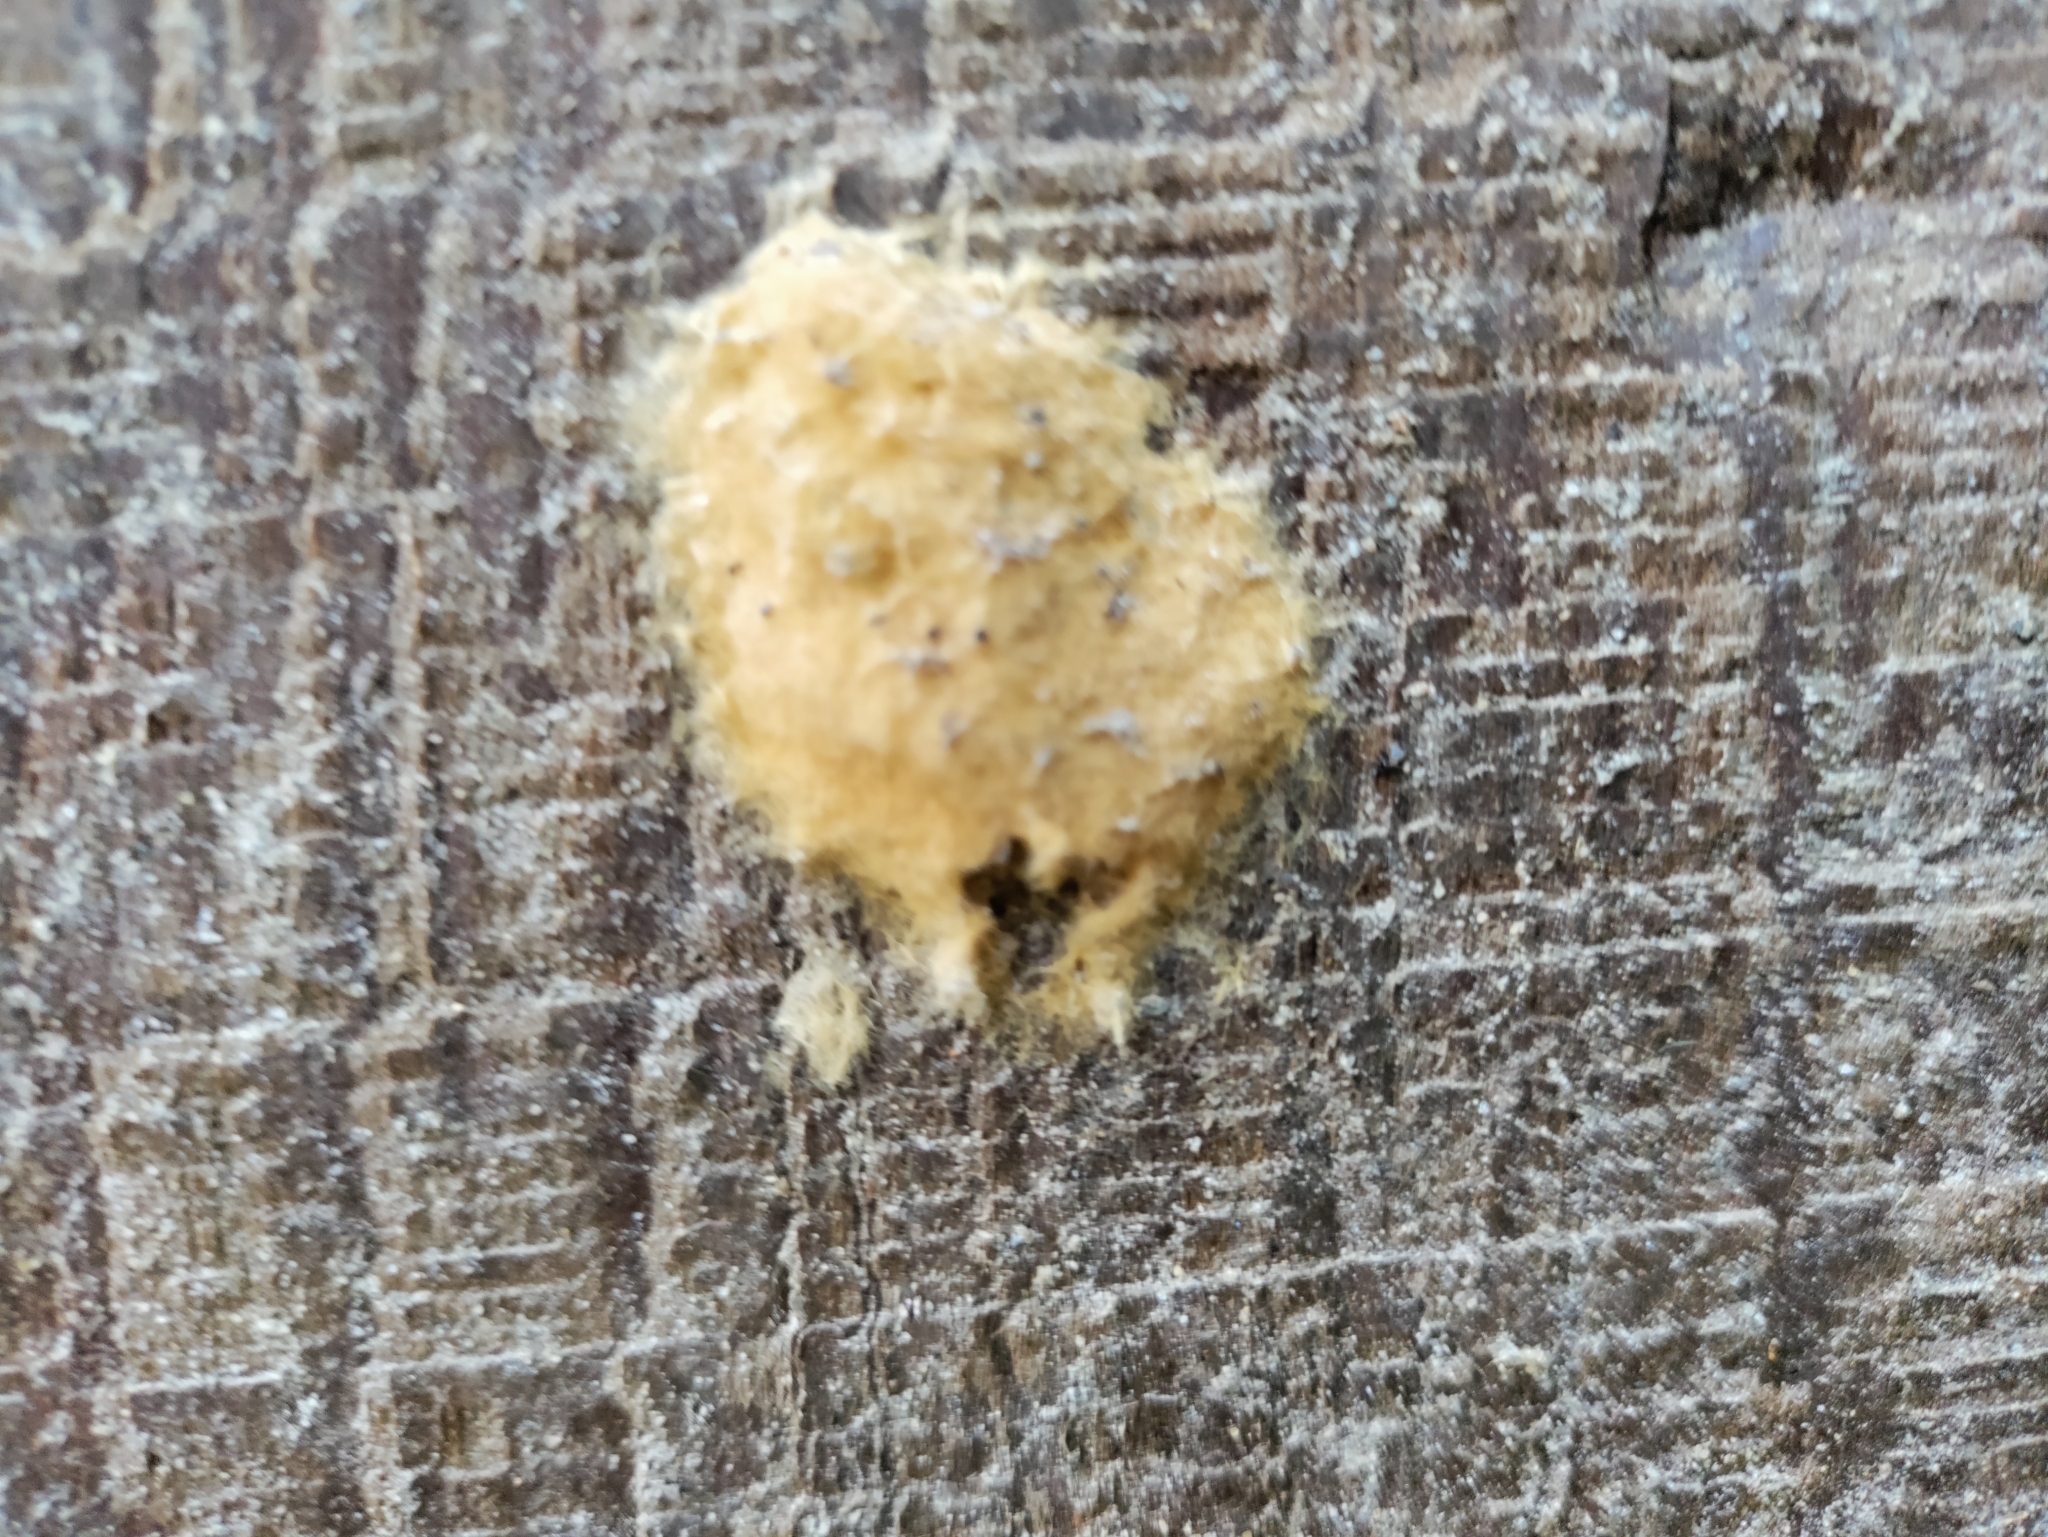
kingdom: Animalia
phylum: Arthropoda
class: Insecta
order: Lepidoptera
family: Erebidae
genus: Lymantria
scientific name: Lymantria dispar
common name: Gypsy moth
